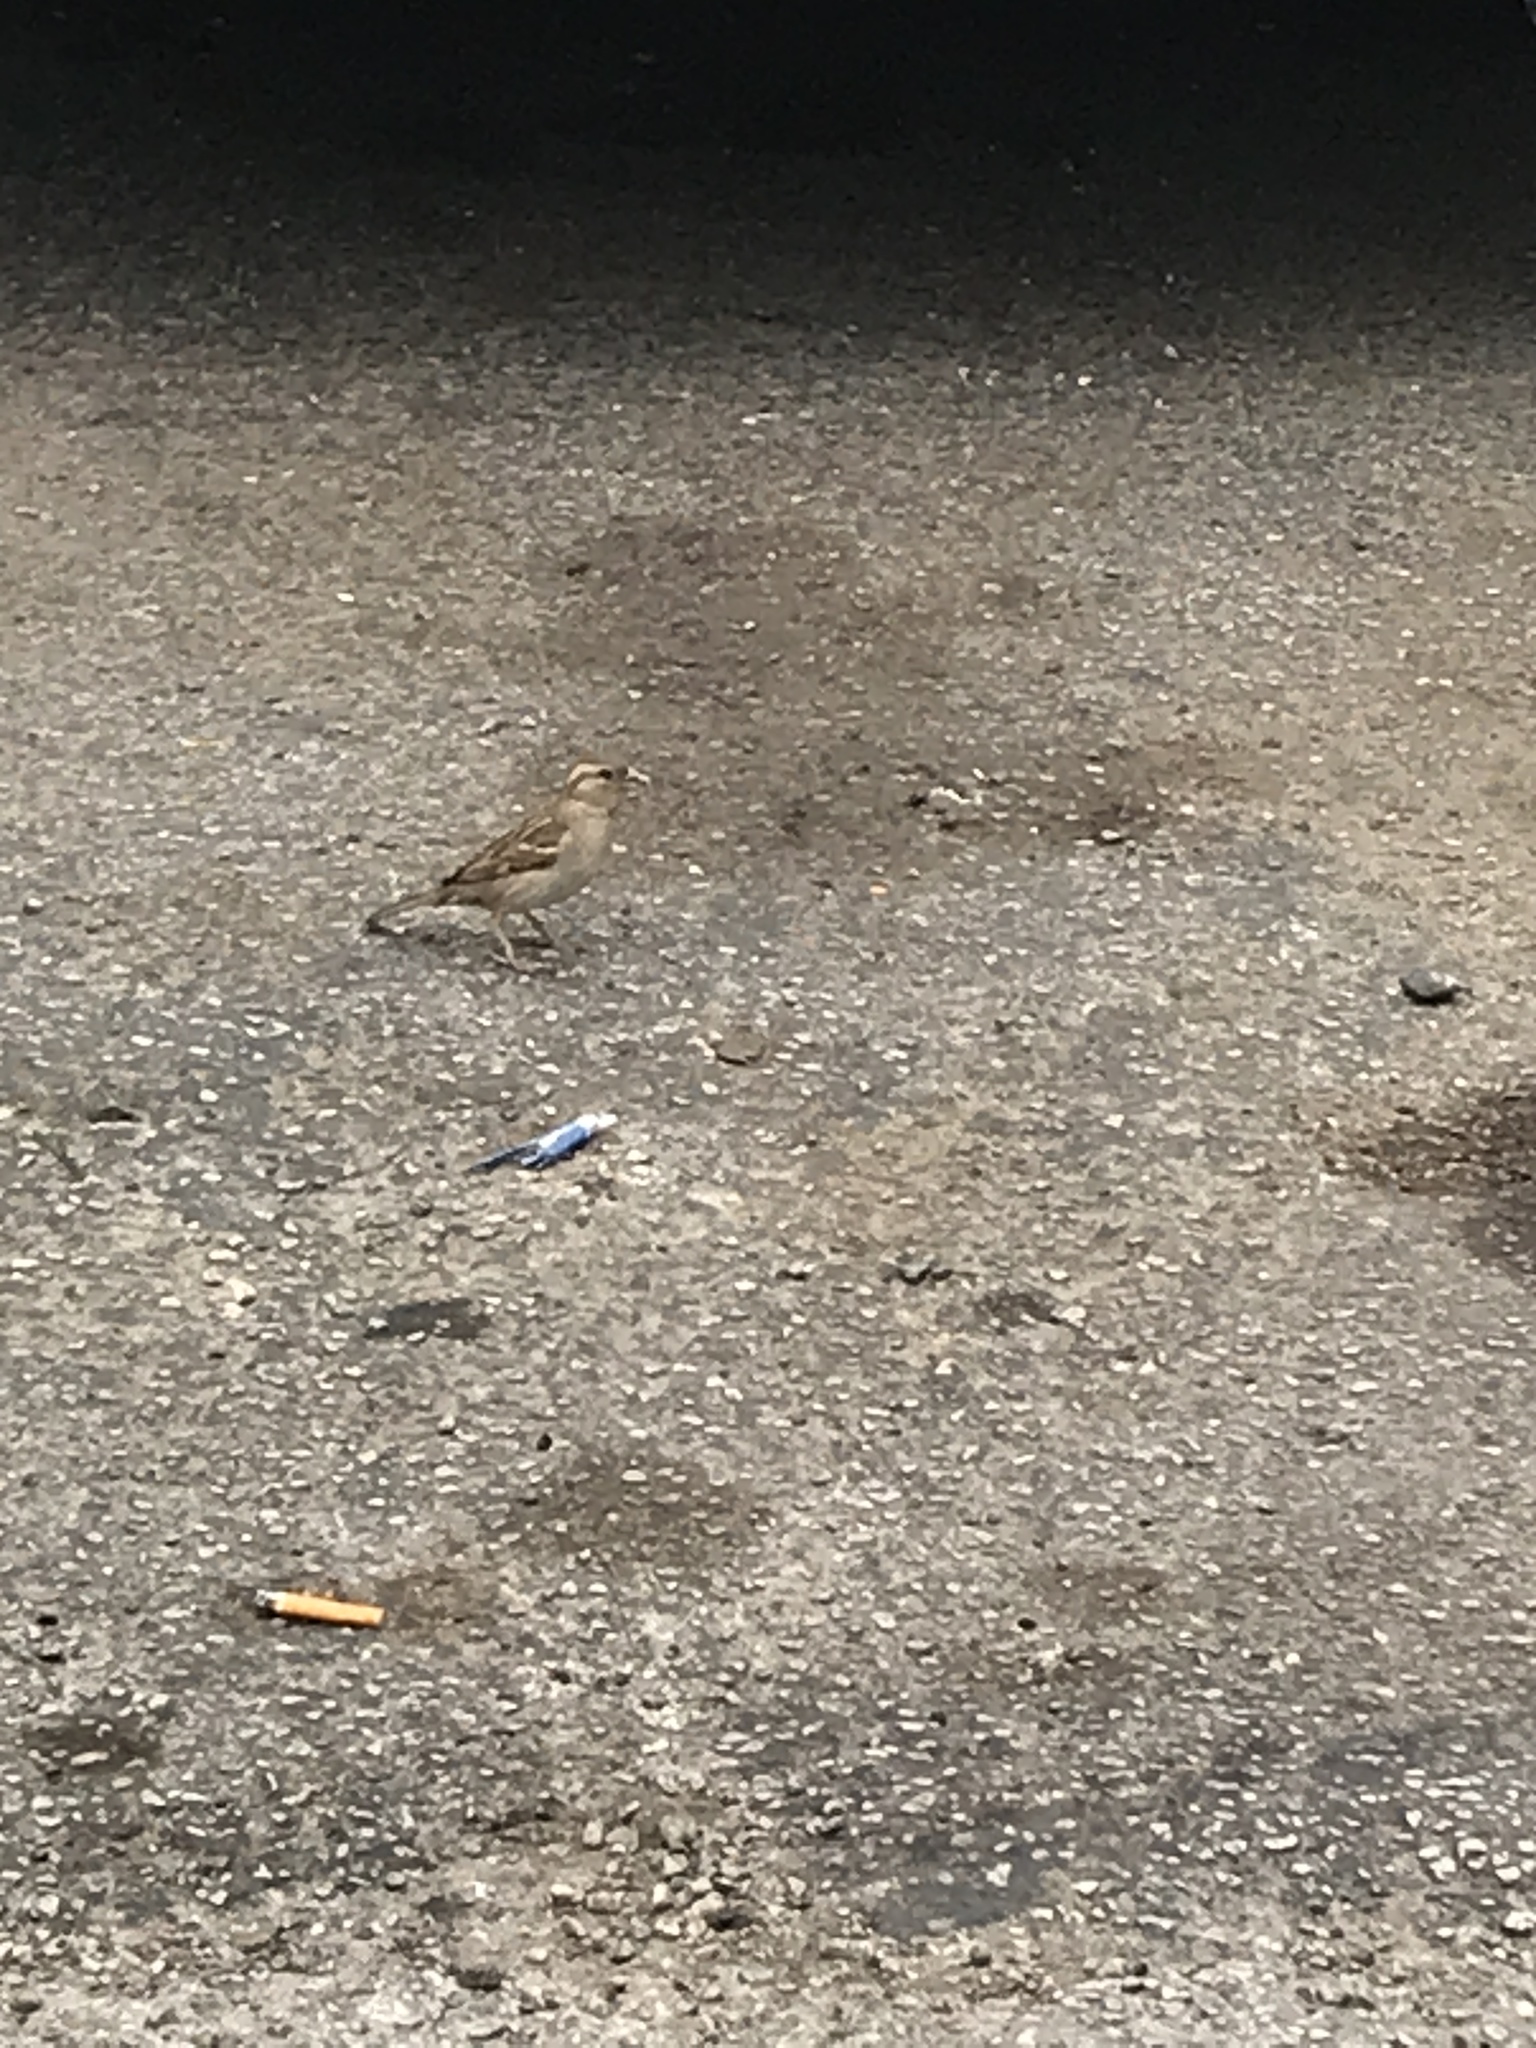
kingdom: Animalia
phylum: Chordata
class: Aves
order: Passeriformes
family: Passeridae
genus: Passer
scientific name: Passer domesticus
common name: House sparrow
